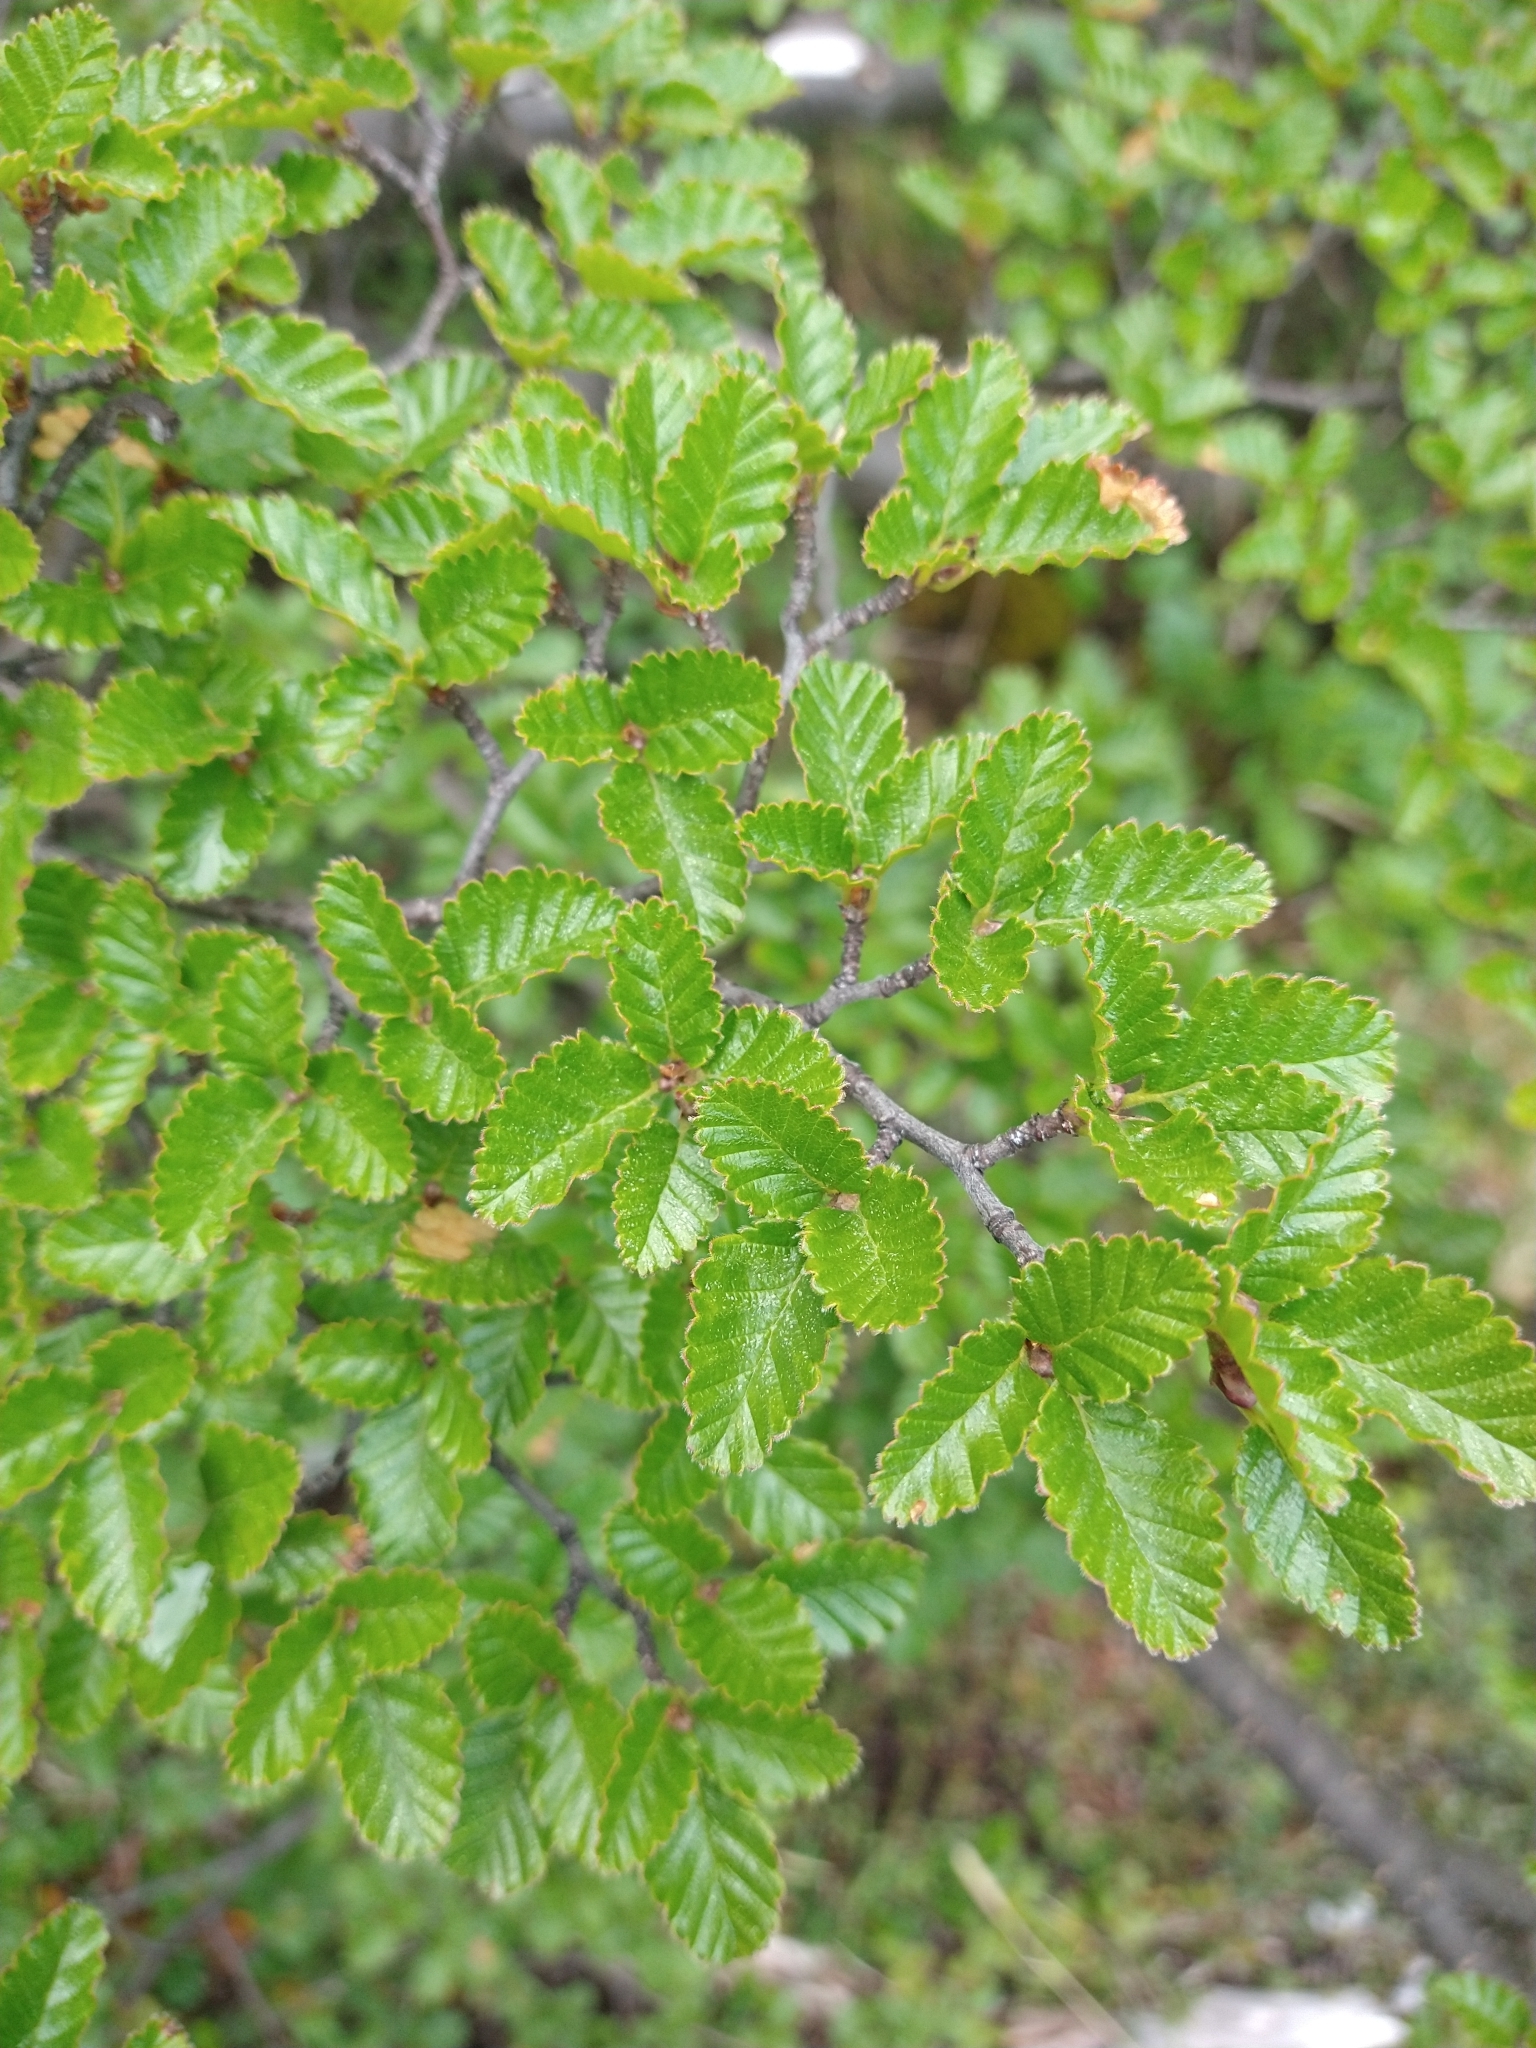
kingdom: Plantae
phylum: Tracheophyta
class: Magnoliopsida
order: Fagales
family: Nothofagaceae
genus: Nothofagus
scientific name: Nothofagus pumilio
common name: Lenga beech
